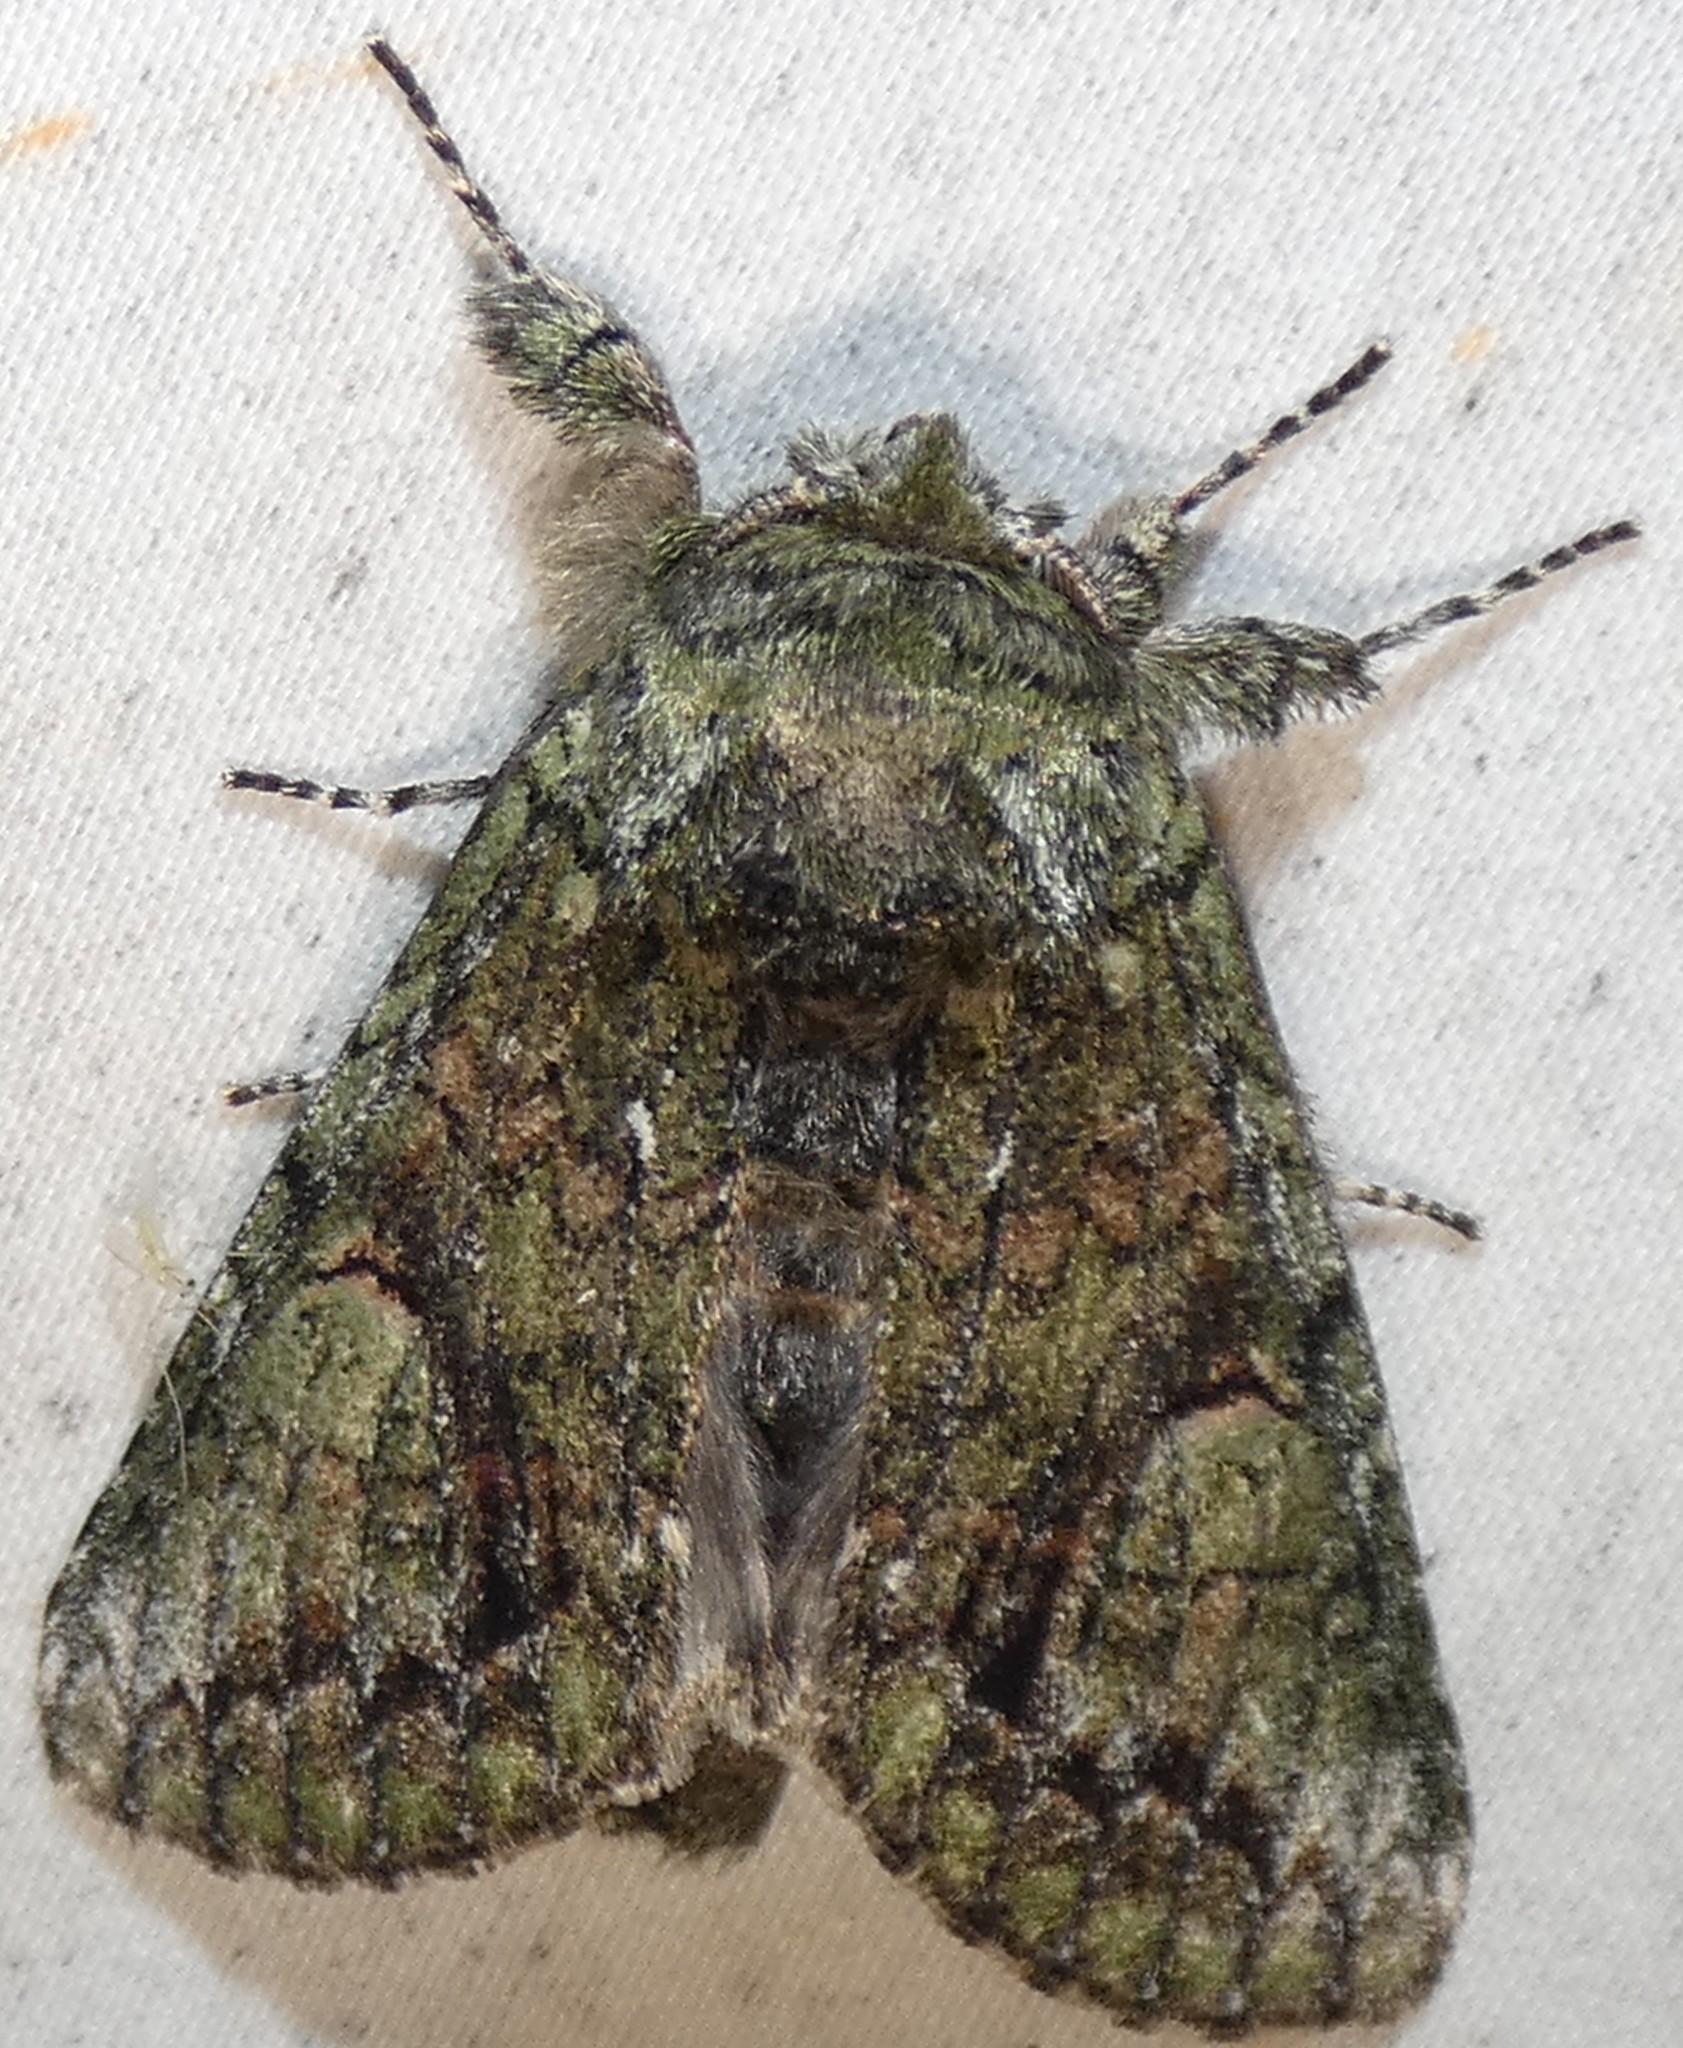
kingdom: Animalia
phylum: Arthropoda
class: Insecta
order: Lepidoptera
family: Notodontidae
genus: Heterocampa
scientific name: Heterocampa
